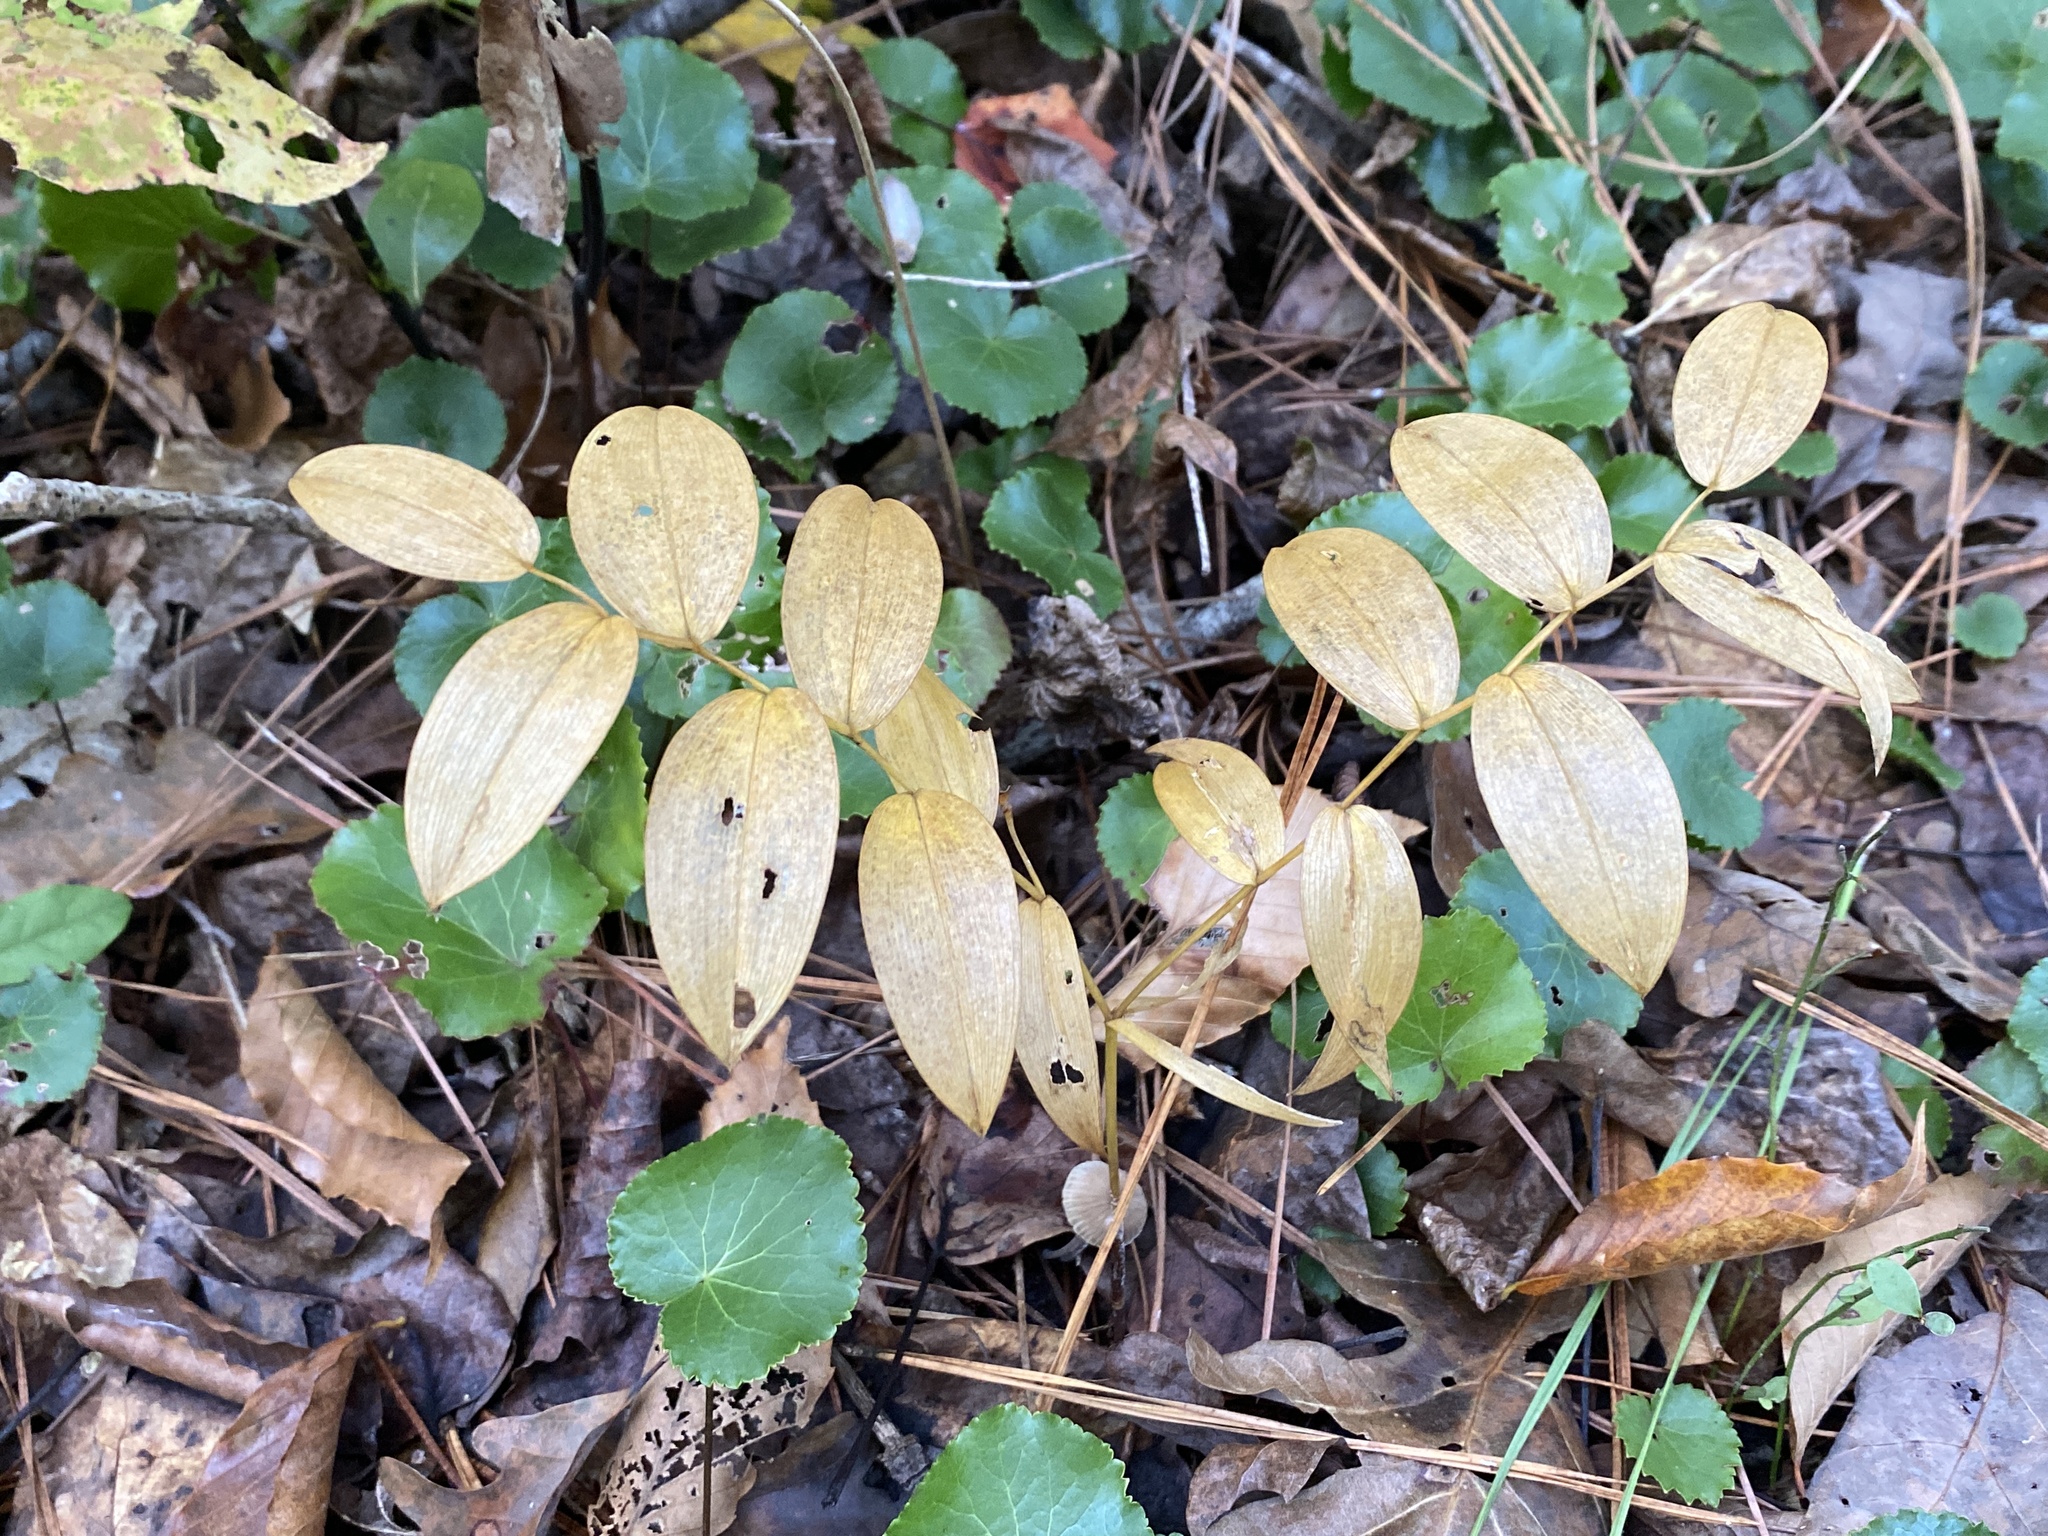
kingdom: Plantae
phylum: Tracheophyta
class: Liliopsida
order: Liliales
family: Colchicaceae
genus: Uvularia
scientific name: Uvularia puberula
